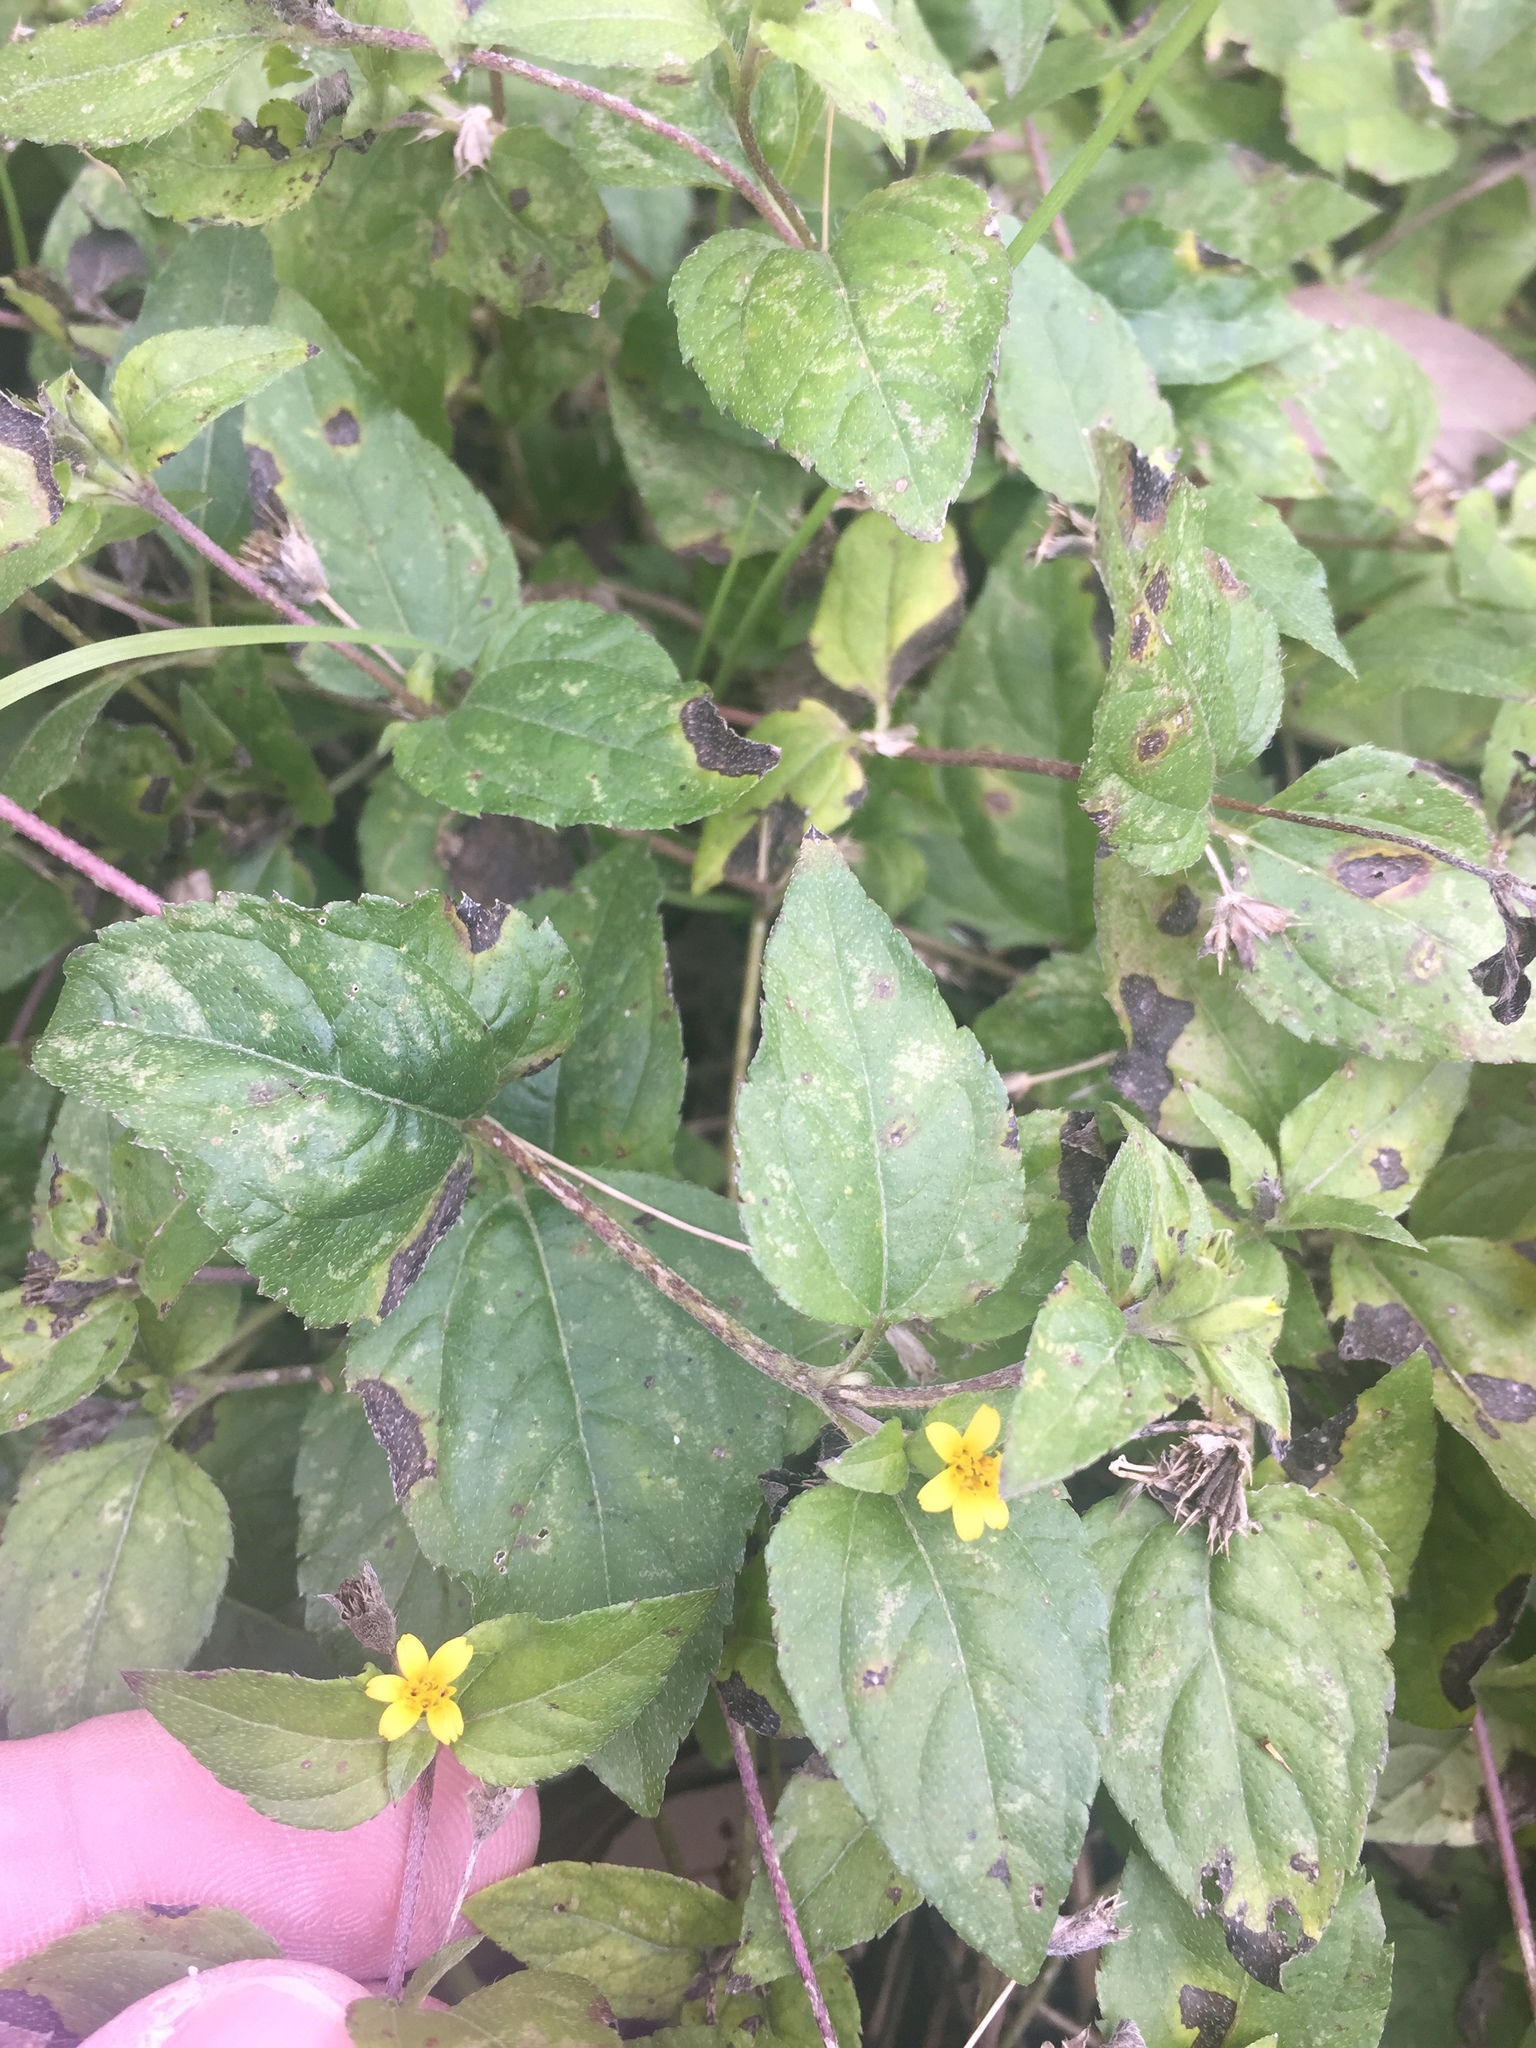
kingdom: Plantae
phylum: Tracheophyta
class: Magnoliopsida
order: Asterales
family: Asteraceae
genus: Calyptocarpus
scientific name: Calyptocarpus vialis
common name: Straggler daisy
